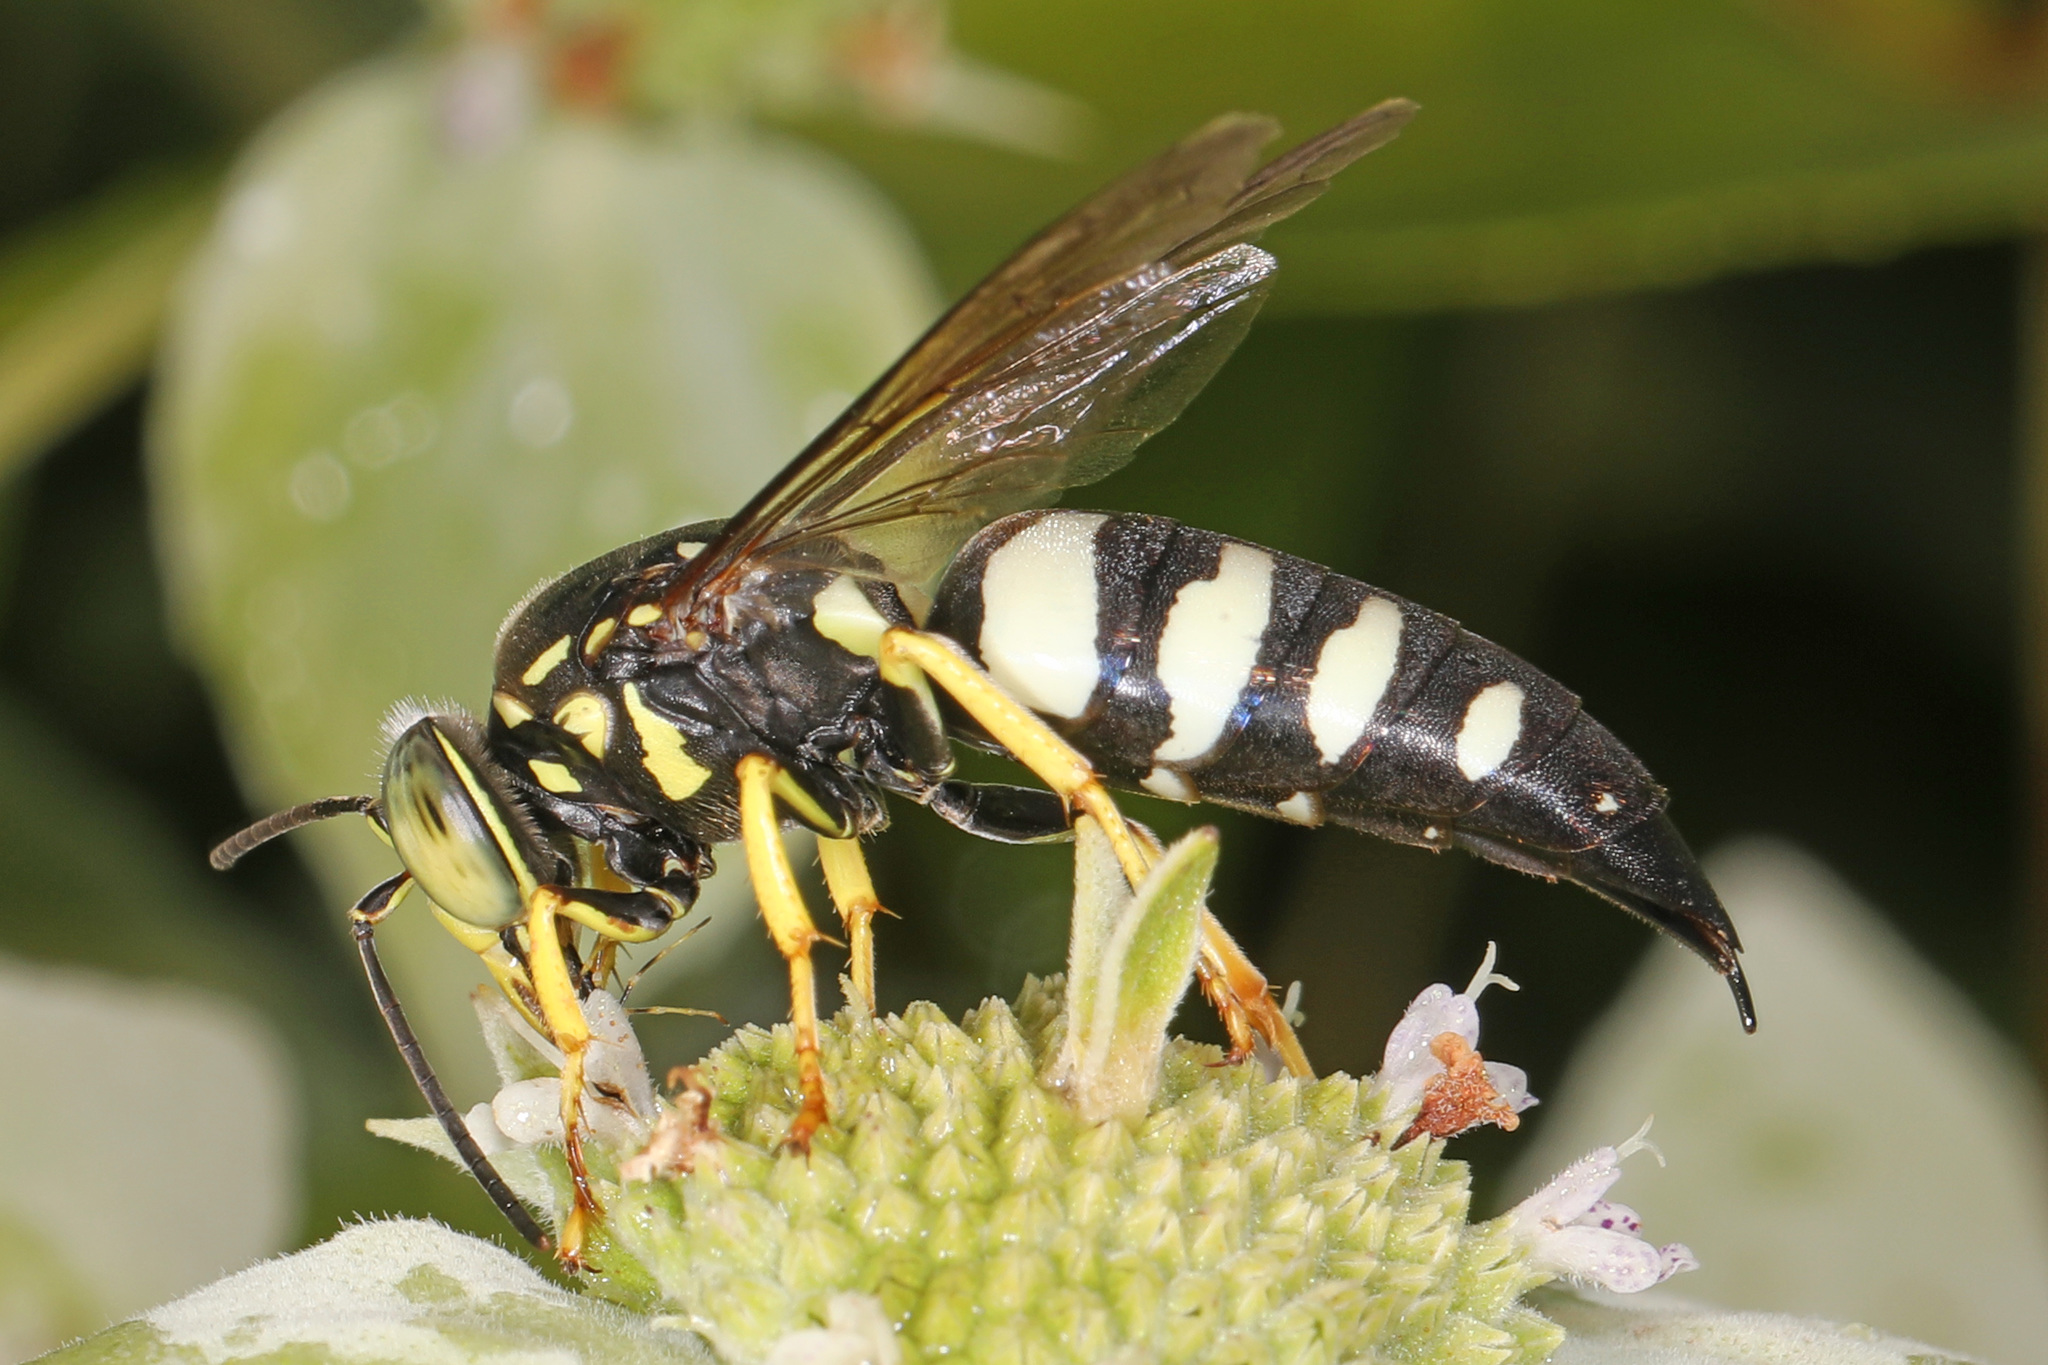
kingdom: Animalia
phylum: Arthropoda
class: Insecta
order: Hymenoptera
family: Crabronidae
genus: Bicyrtes
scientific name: Bicyrtes quadrifasciatus
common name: Four-banded stink bug hunter wasp
